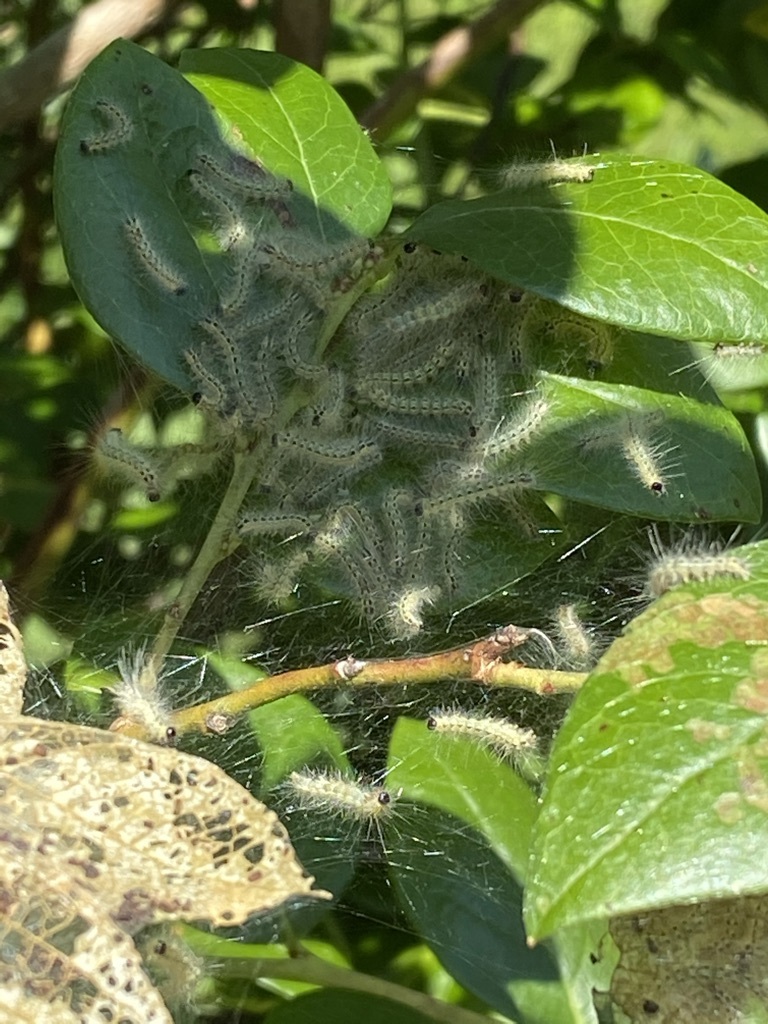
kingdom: Animalia
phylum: Arthropoda
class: Insecta
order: Lepidoptera
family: Erebidae
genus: Hyphantria
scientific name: Hyphantria cunea
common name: American white moth
